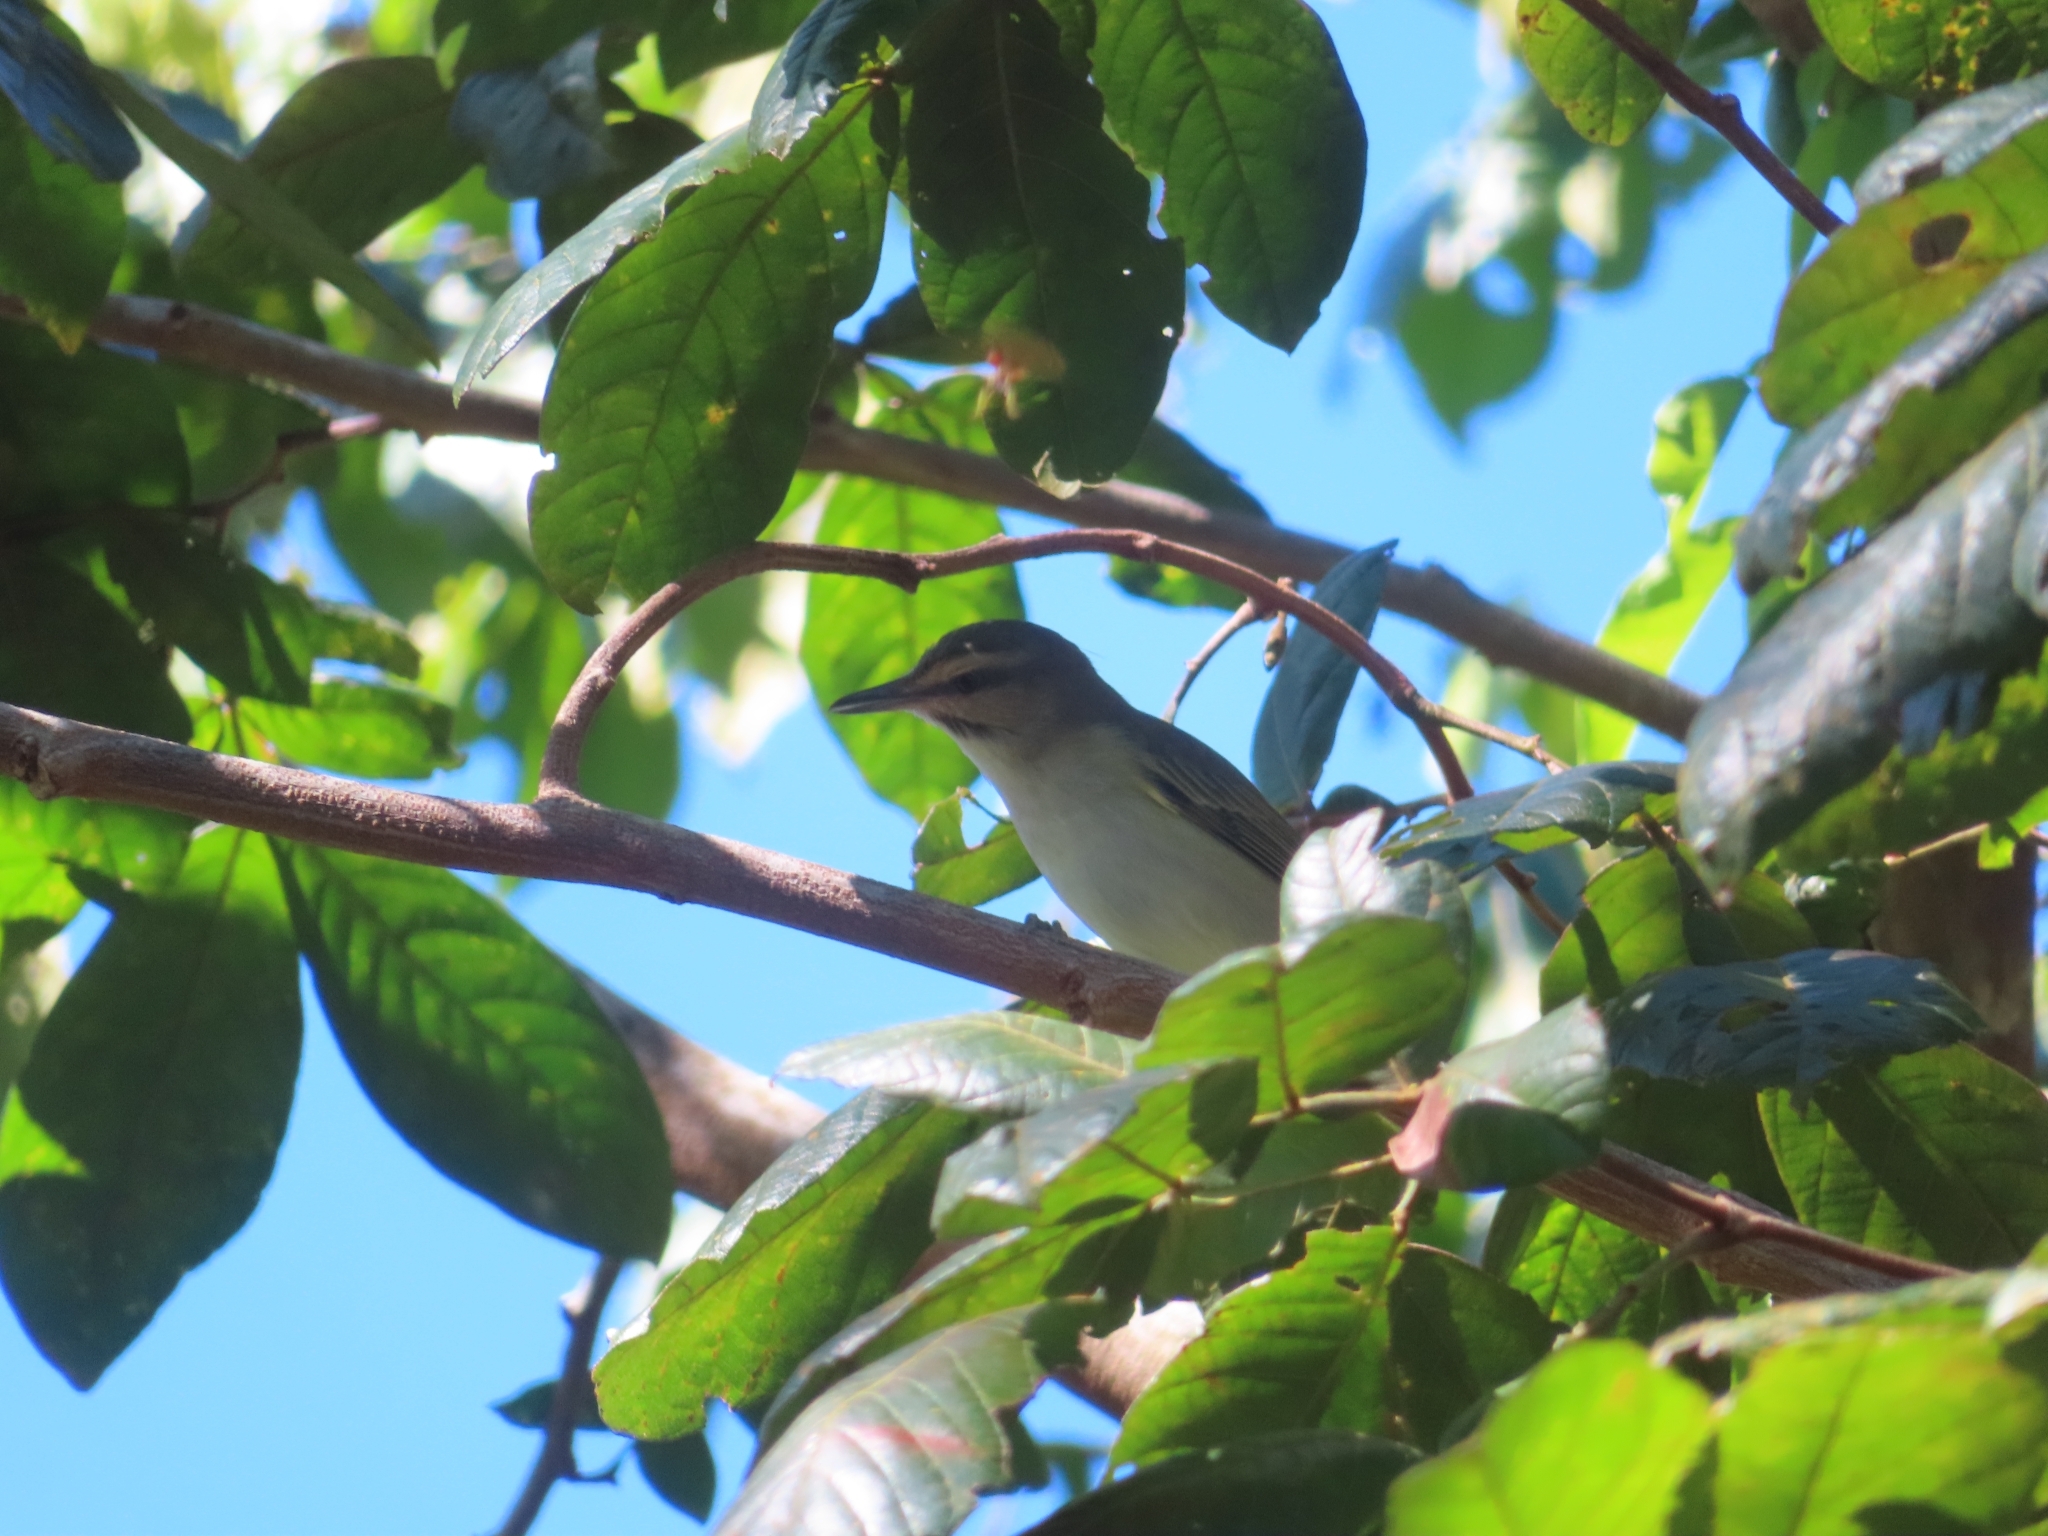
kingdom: Animalia
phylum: Chordata
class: Aves
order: Passeriformes
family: Vireonidae
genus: Vireo
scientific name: Vireo altiloquus
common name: Black-whiskered vireo
